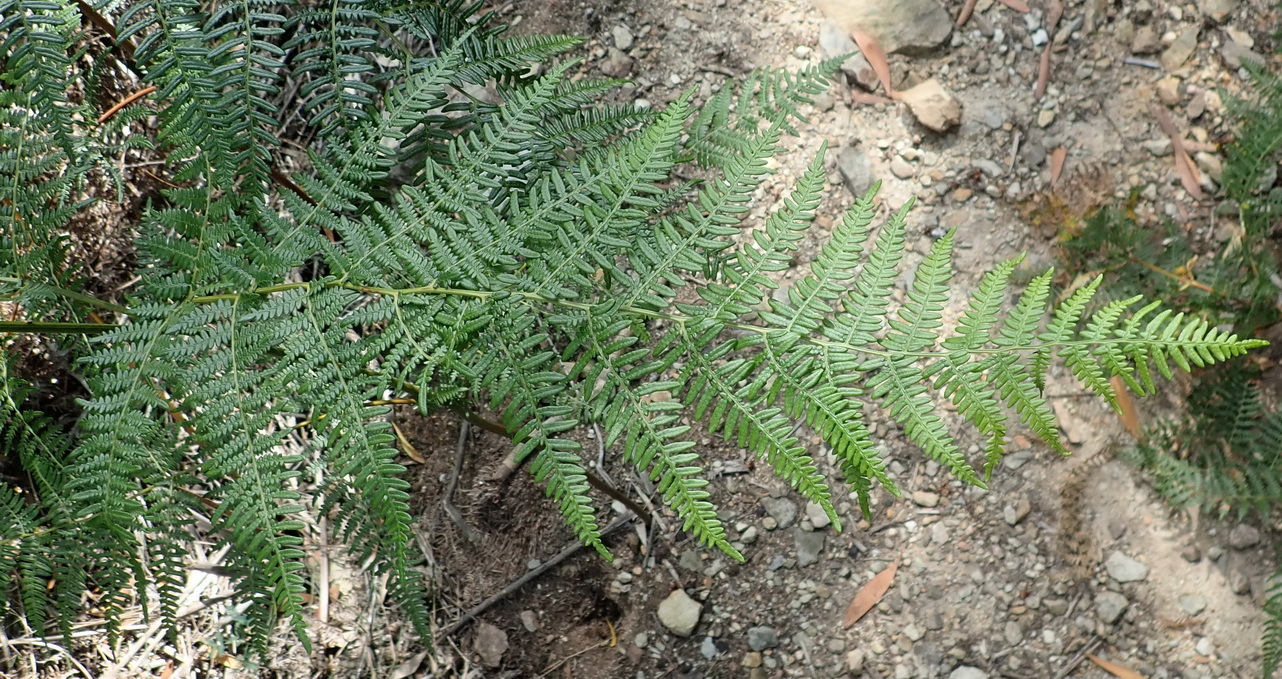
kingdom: Plantae
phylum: Tracheophyta
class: Polypodiopsida
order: Polypodiales
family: Dennstaedtiaceae
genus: Pteridium
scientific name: Pteridium aquilinum
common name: Bracken
